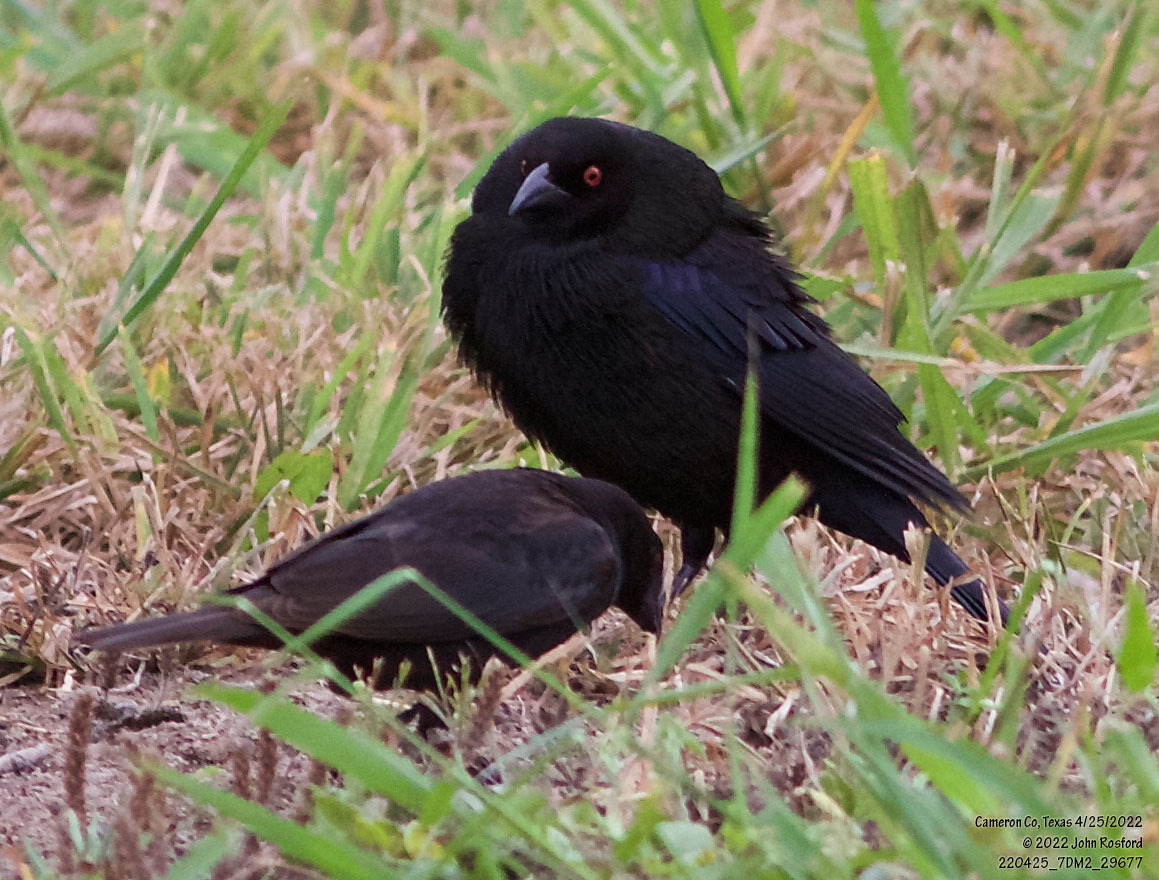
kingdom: Animalia
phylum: Chordata
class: Aves
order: Passeriformes
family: Icteridae
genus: Molothrus
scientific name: Molothrus aeneus
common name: Bronzed cowbird
